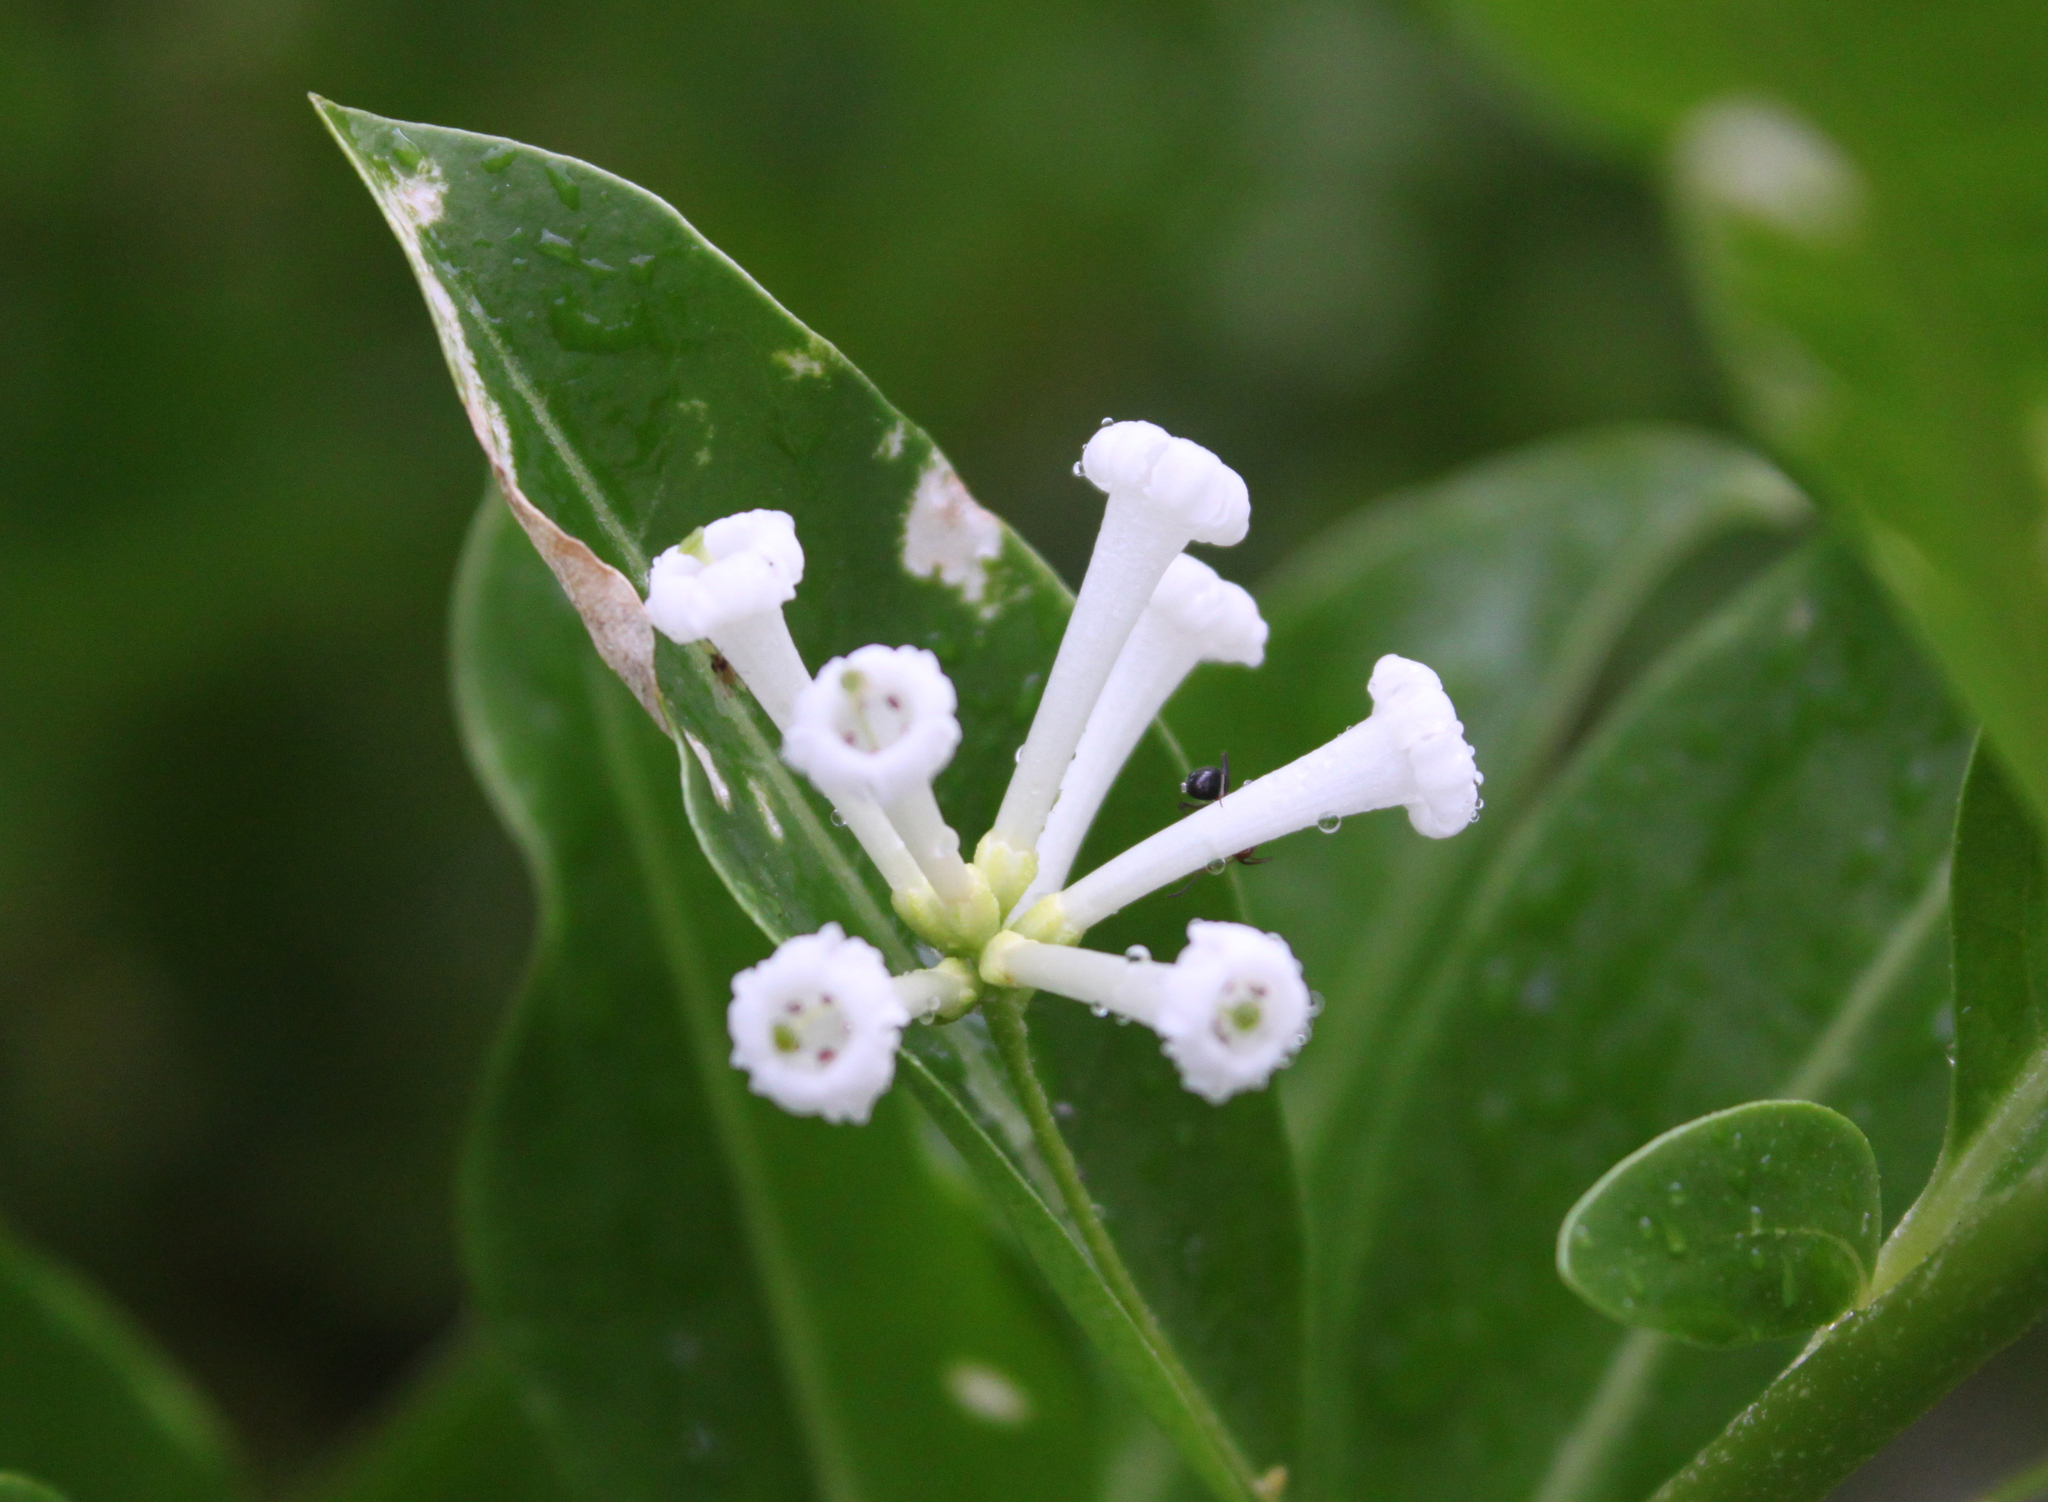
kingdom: Plantae
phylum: Tracheophyta
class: Magnoliopsida
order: Solanales
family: Solanaceae
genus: Cestrum
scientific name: Cestrum diurnum
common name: Day jessamine
